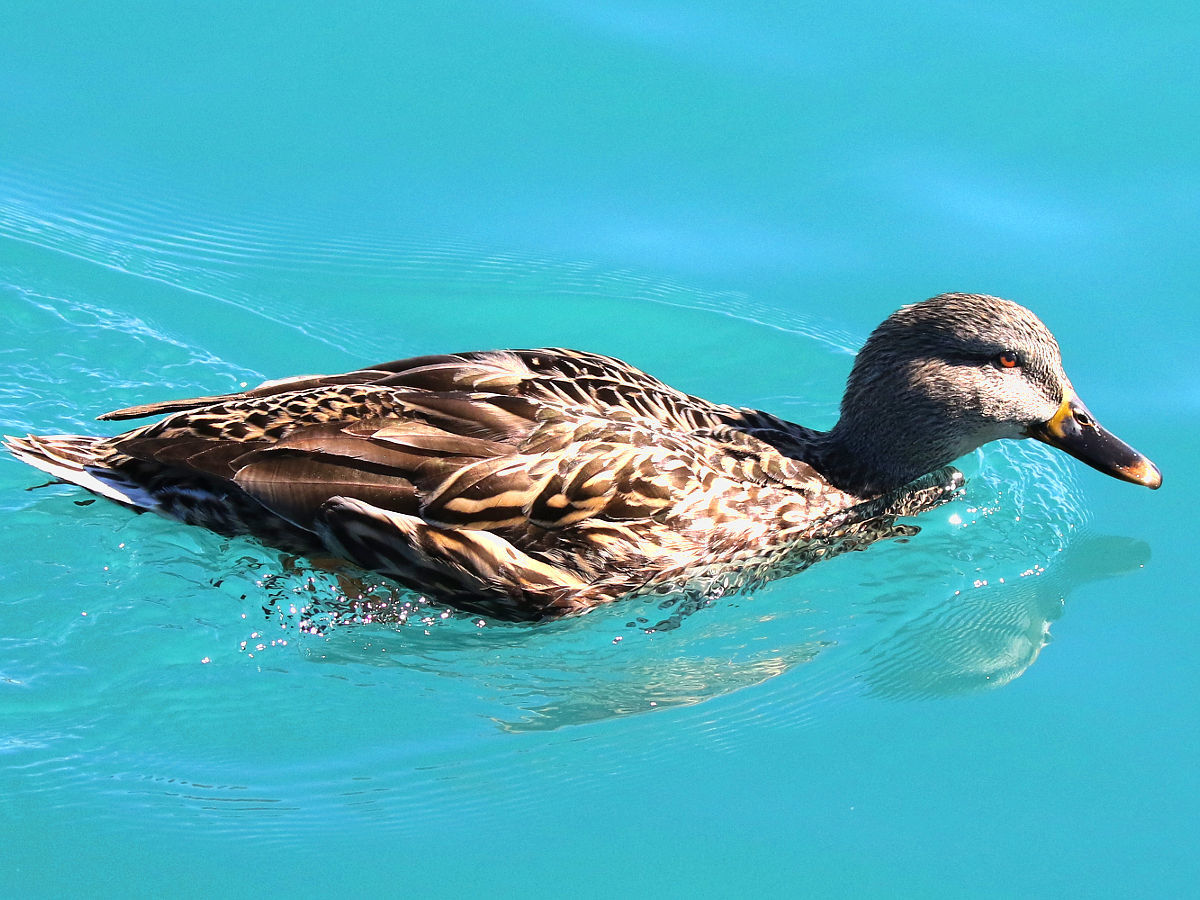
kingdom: Animalia
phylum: Chordata
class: Aves
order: Anseriformes
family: Anatidae
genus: Anas
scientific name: Anas platyrhynchos
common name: Mallard
